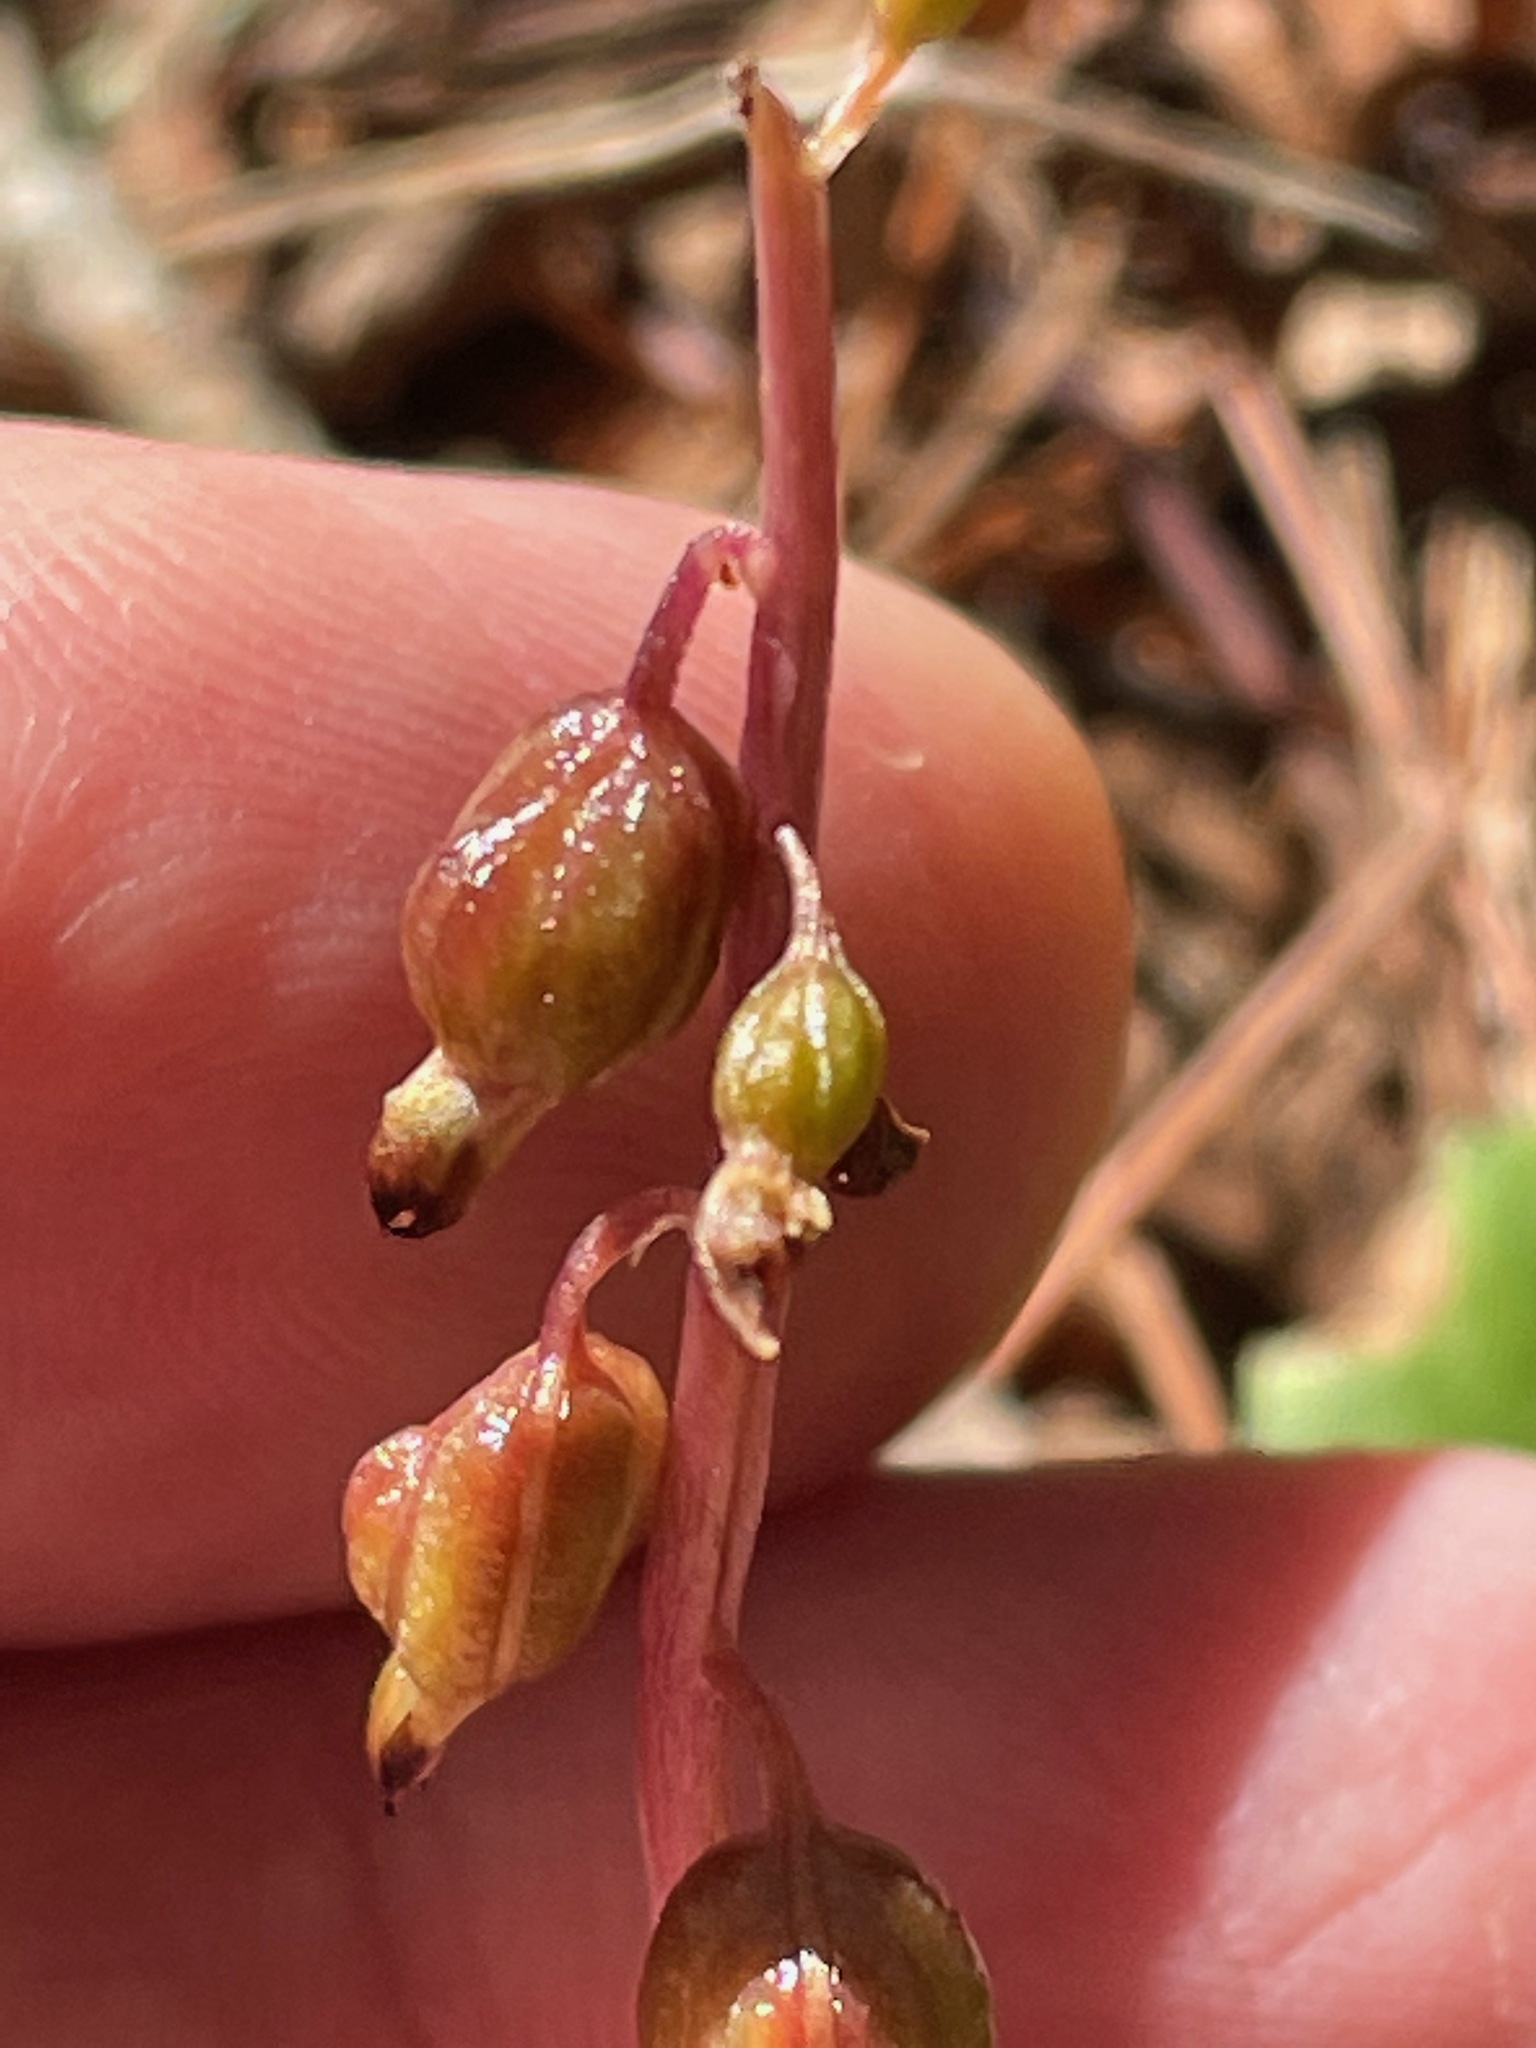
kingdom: Plantae
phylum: Tracheophyta
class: Liliopsida
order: Asparagales
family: Orchidaceae
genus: Corallorhiza
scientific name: Corallorhiza odontorhiza
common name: Autumn coralroot
